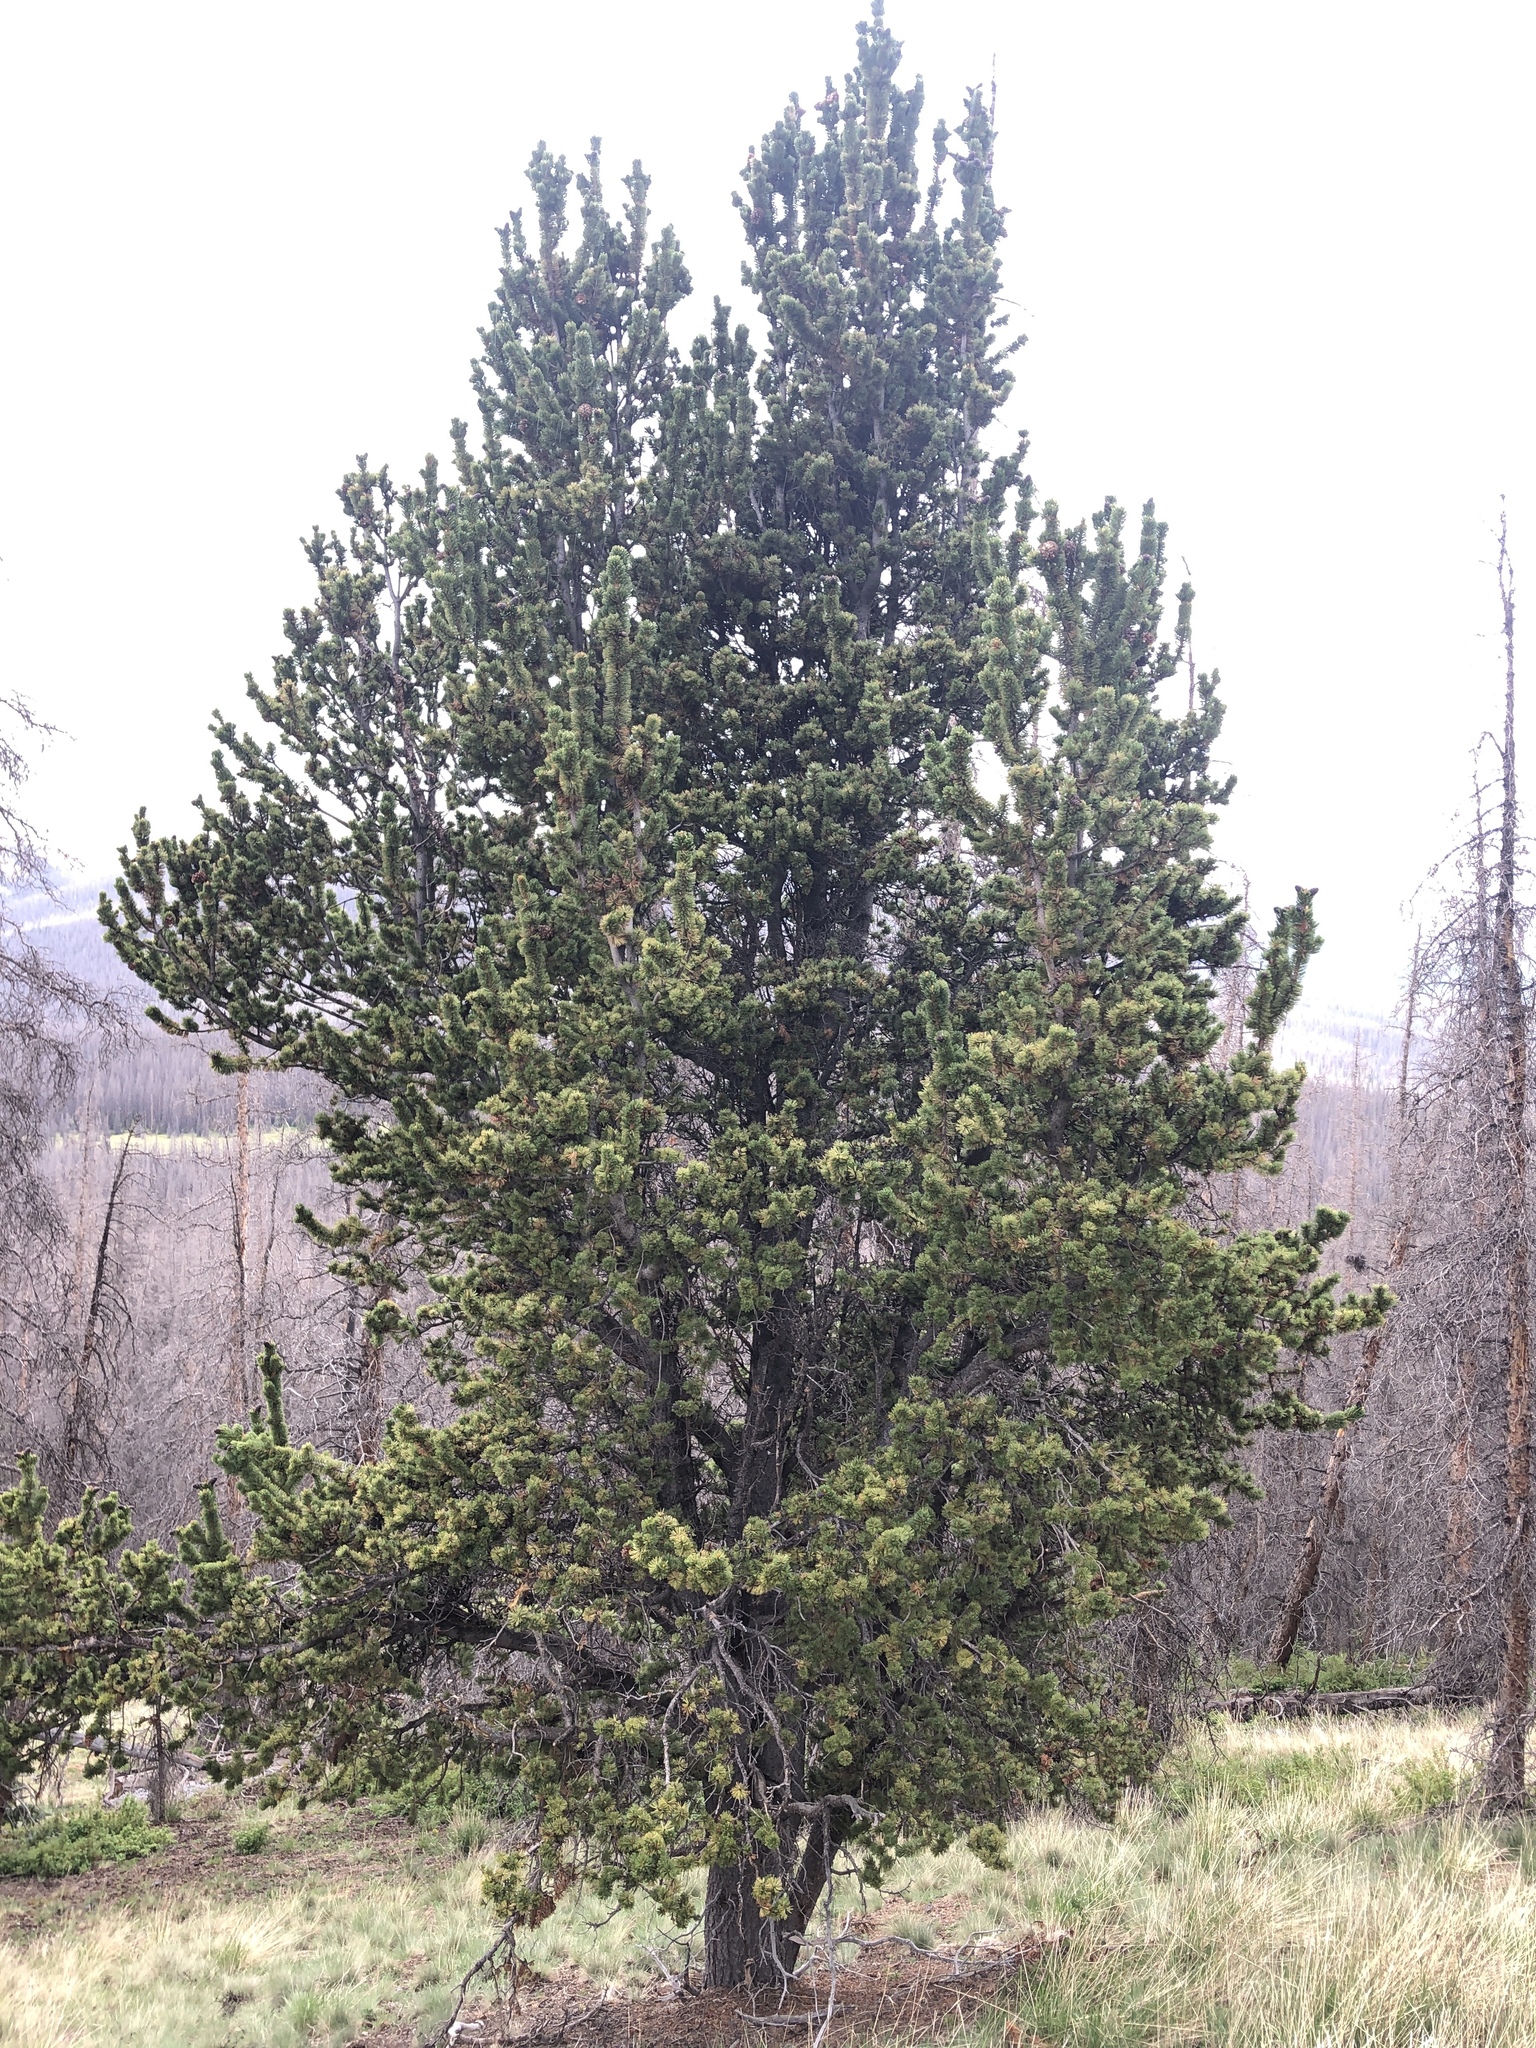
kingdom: Plantae
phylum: Tracheophyta
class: Pinopsida
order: Pinales
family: Pinaceae
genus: Pinus
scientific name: Pinus aristata
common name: Colorado bristlecone pine
